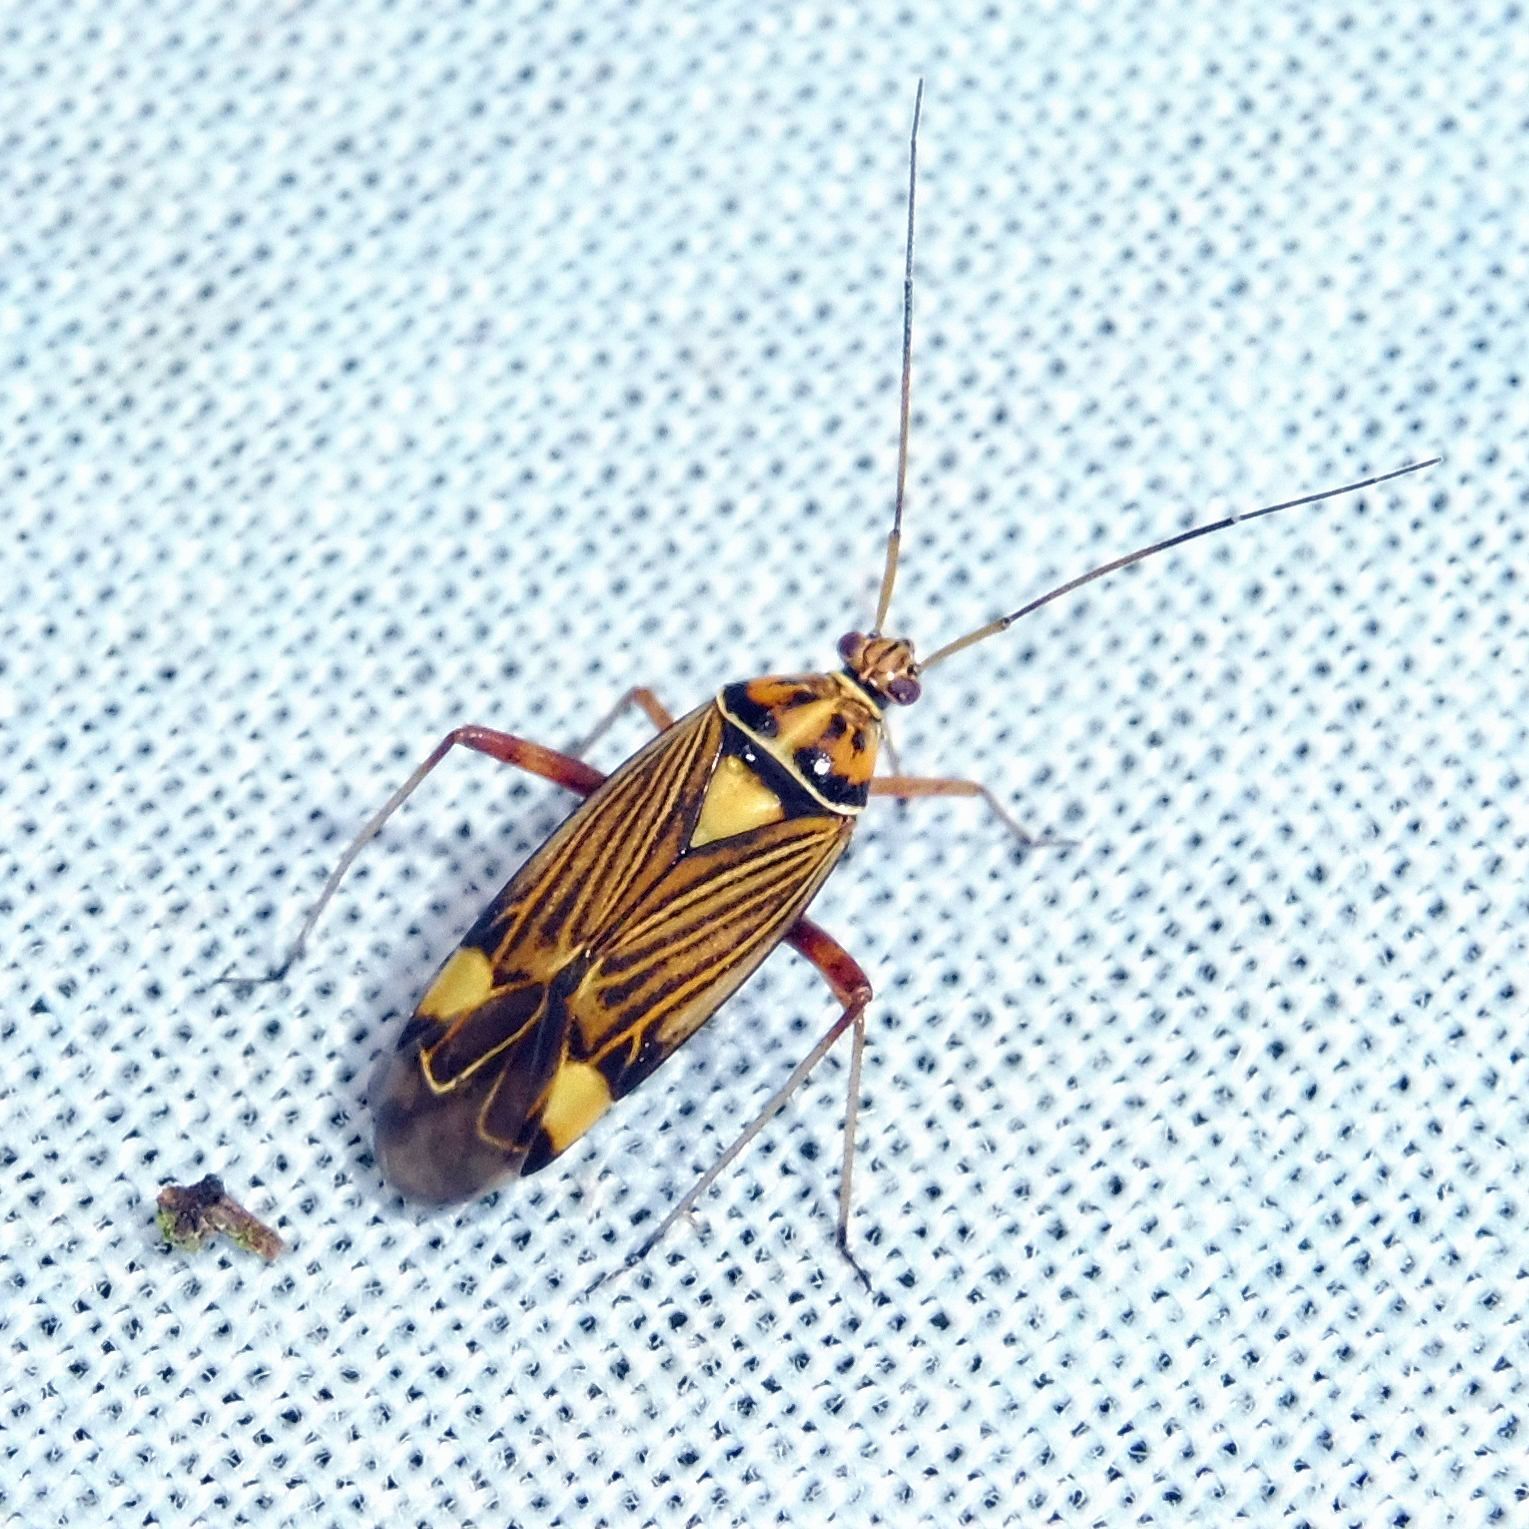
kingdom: Animalia
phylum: Arthropoda
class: Insecta
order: Hemiptera
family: Miridae
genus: Rhabdomiris
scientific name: Rhabdomiris striatellus
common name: Plant bug
